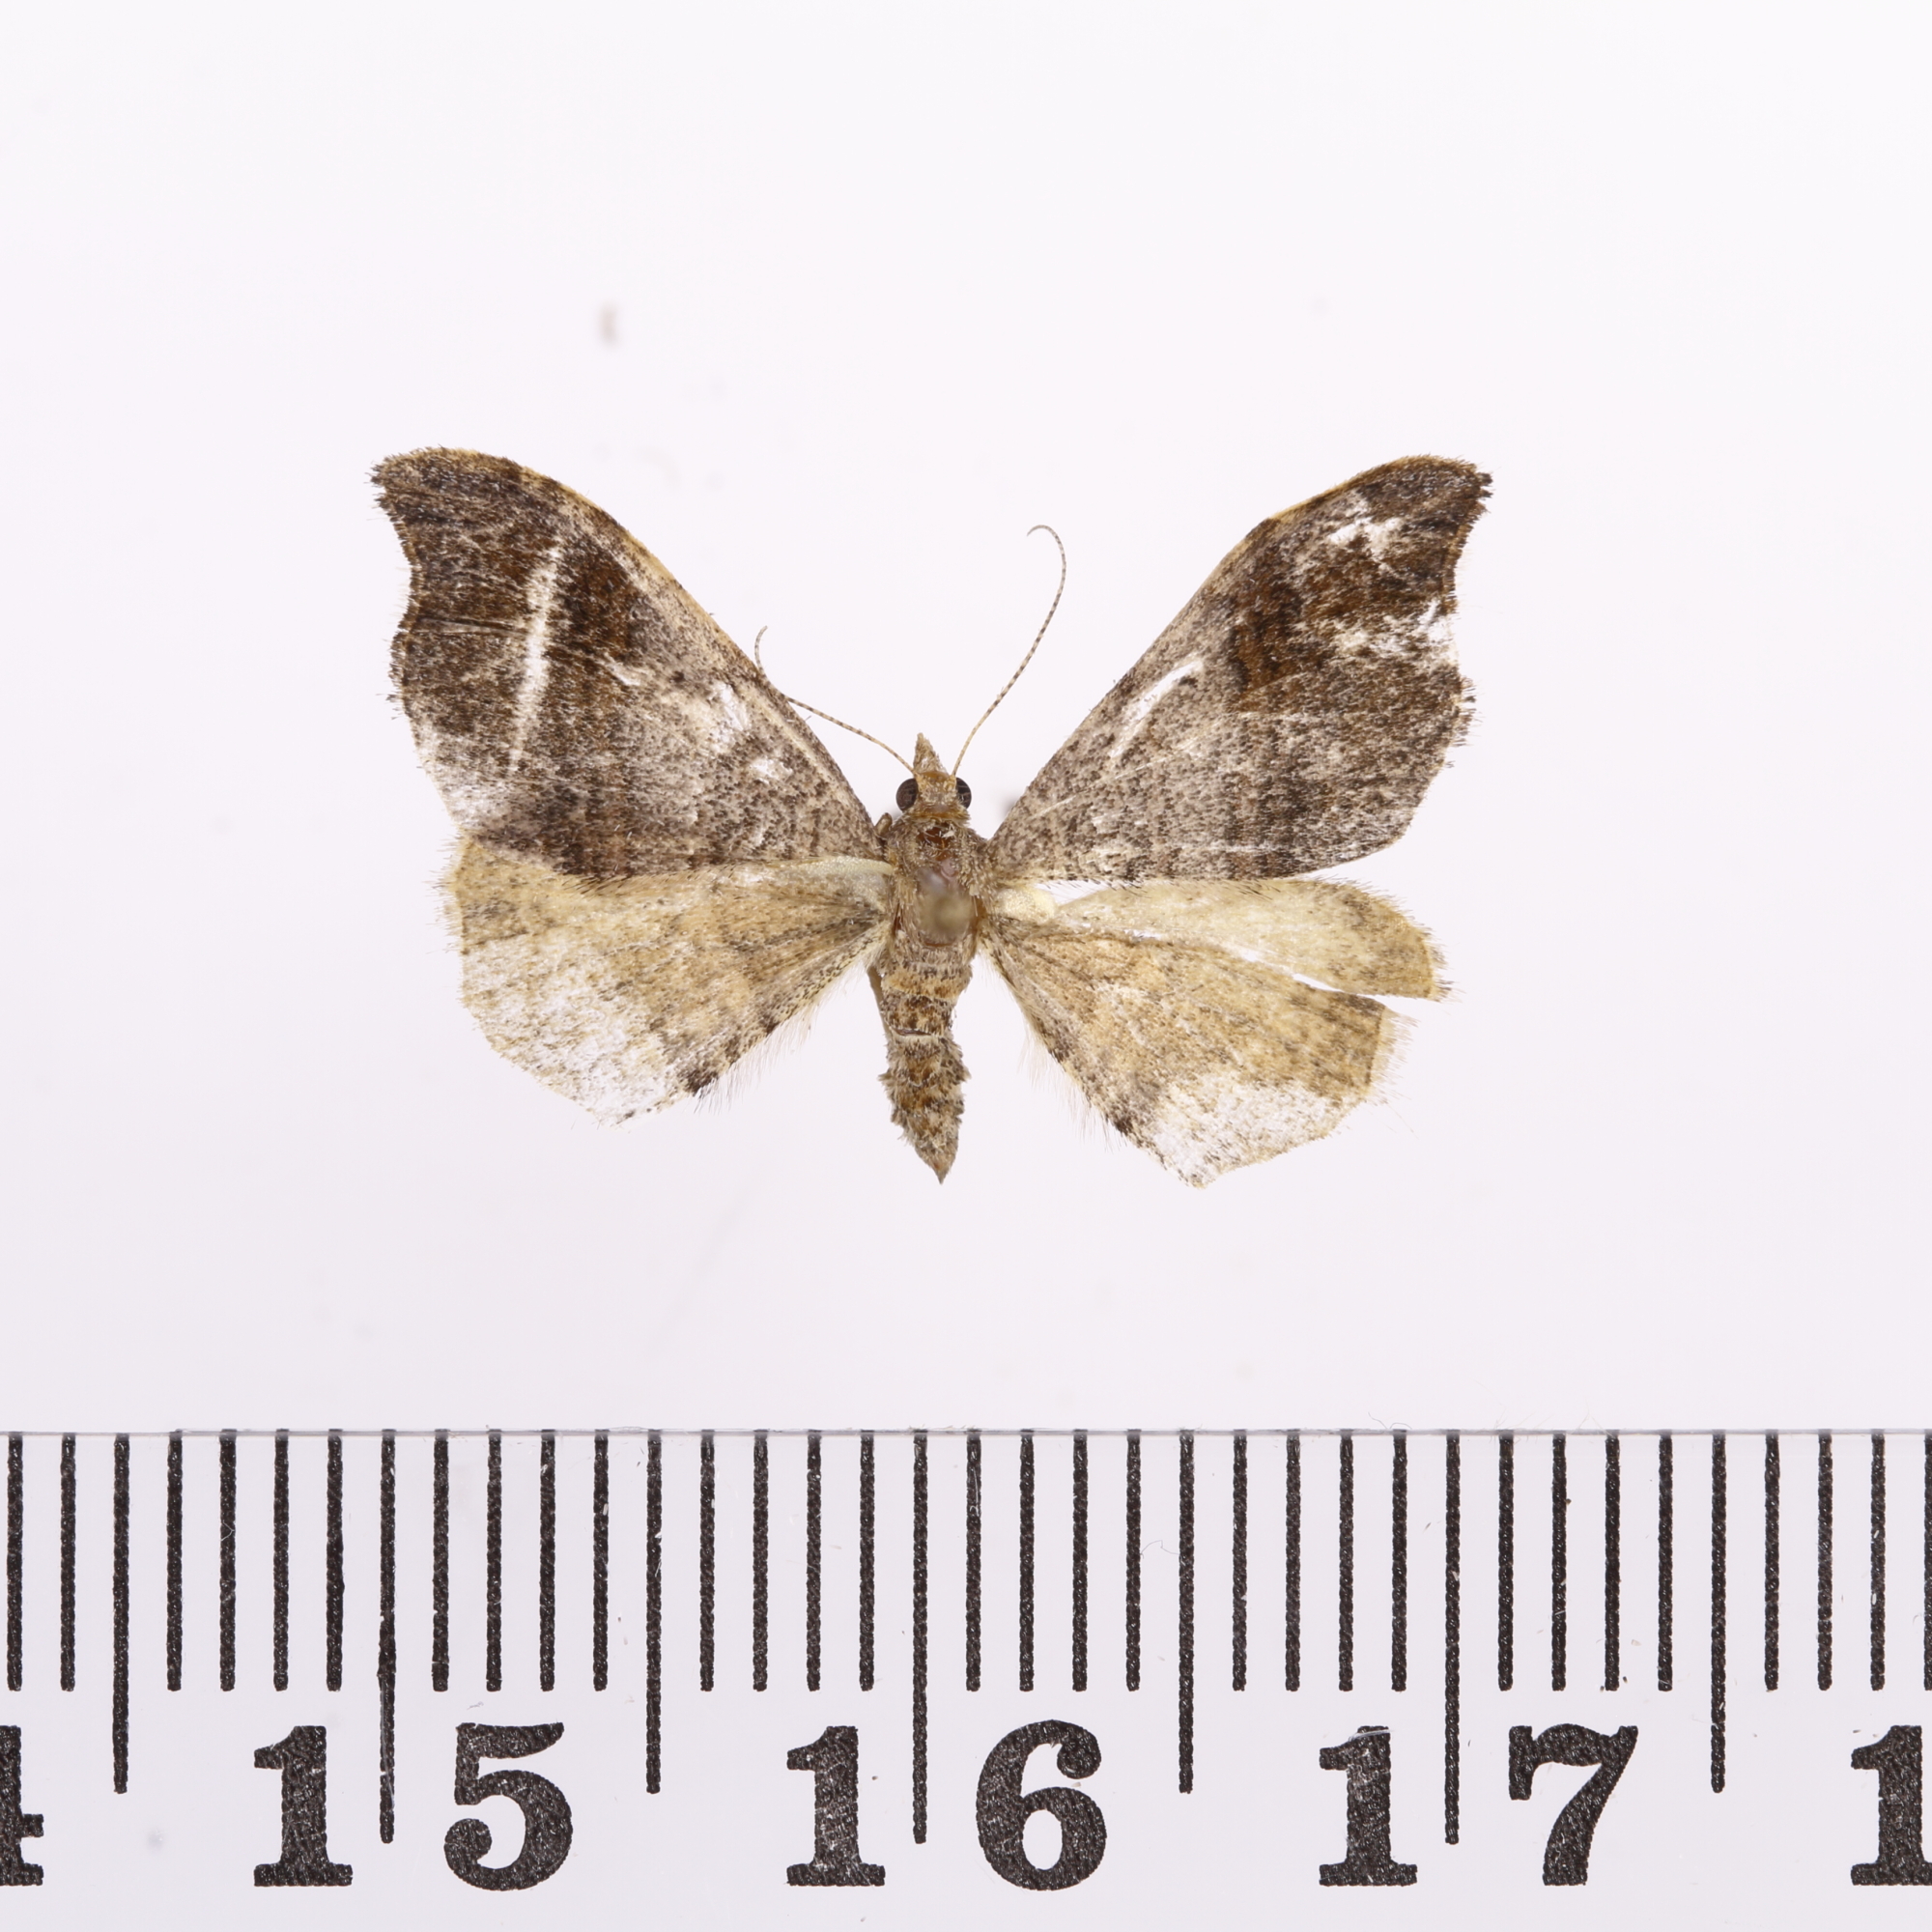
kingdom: Animalia
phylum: Arthropoda
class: Insecta
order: Lepidoptera
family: Geometridae
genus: Homodotis
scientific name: Homodotis megaspilata
